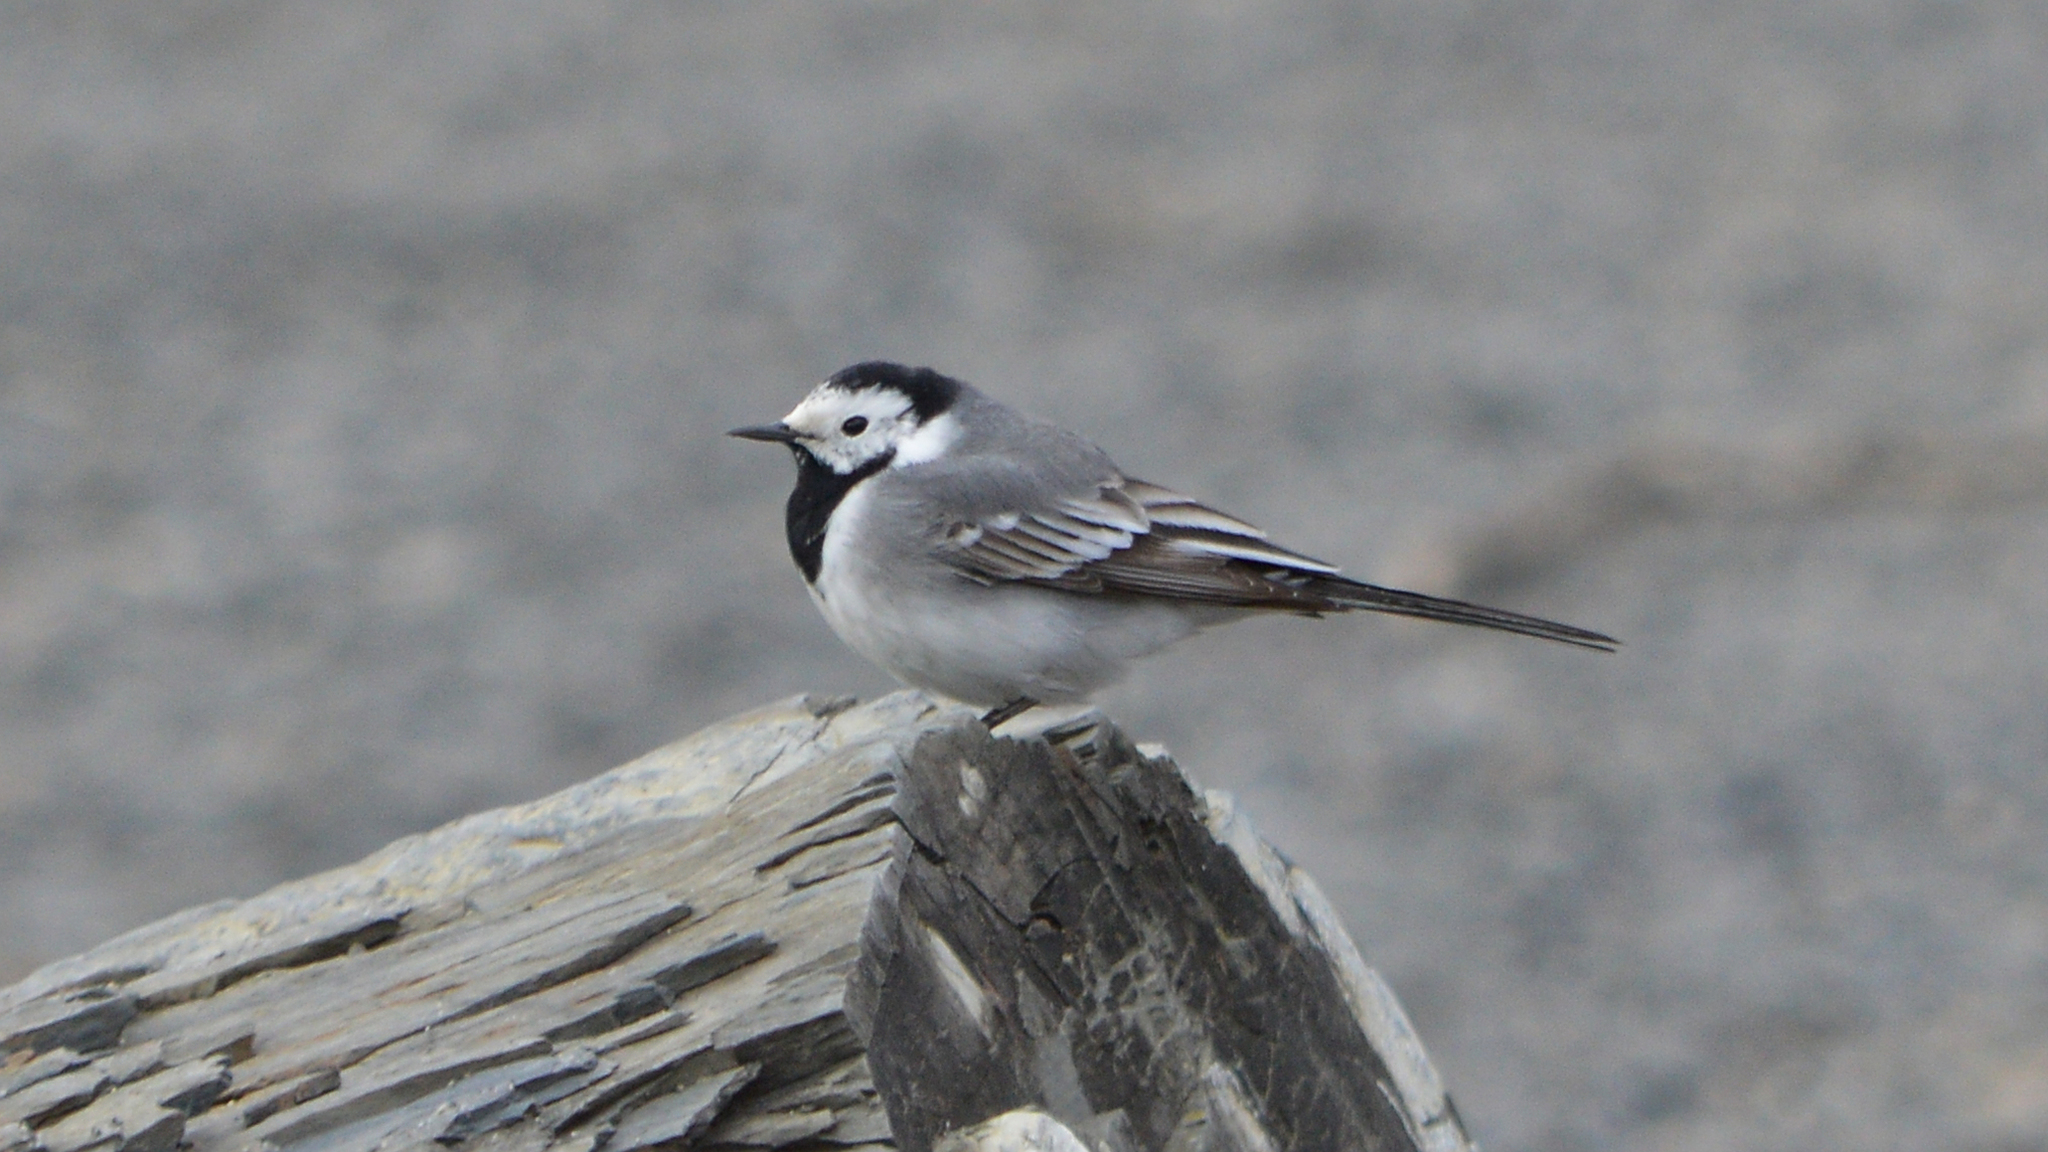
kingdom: Animalia
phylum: Chordata
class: Aves
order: Passeriformes
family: Motacillidae
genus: Motacilla
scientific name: Motacilla alba
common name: White wagtail
